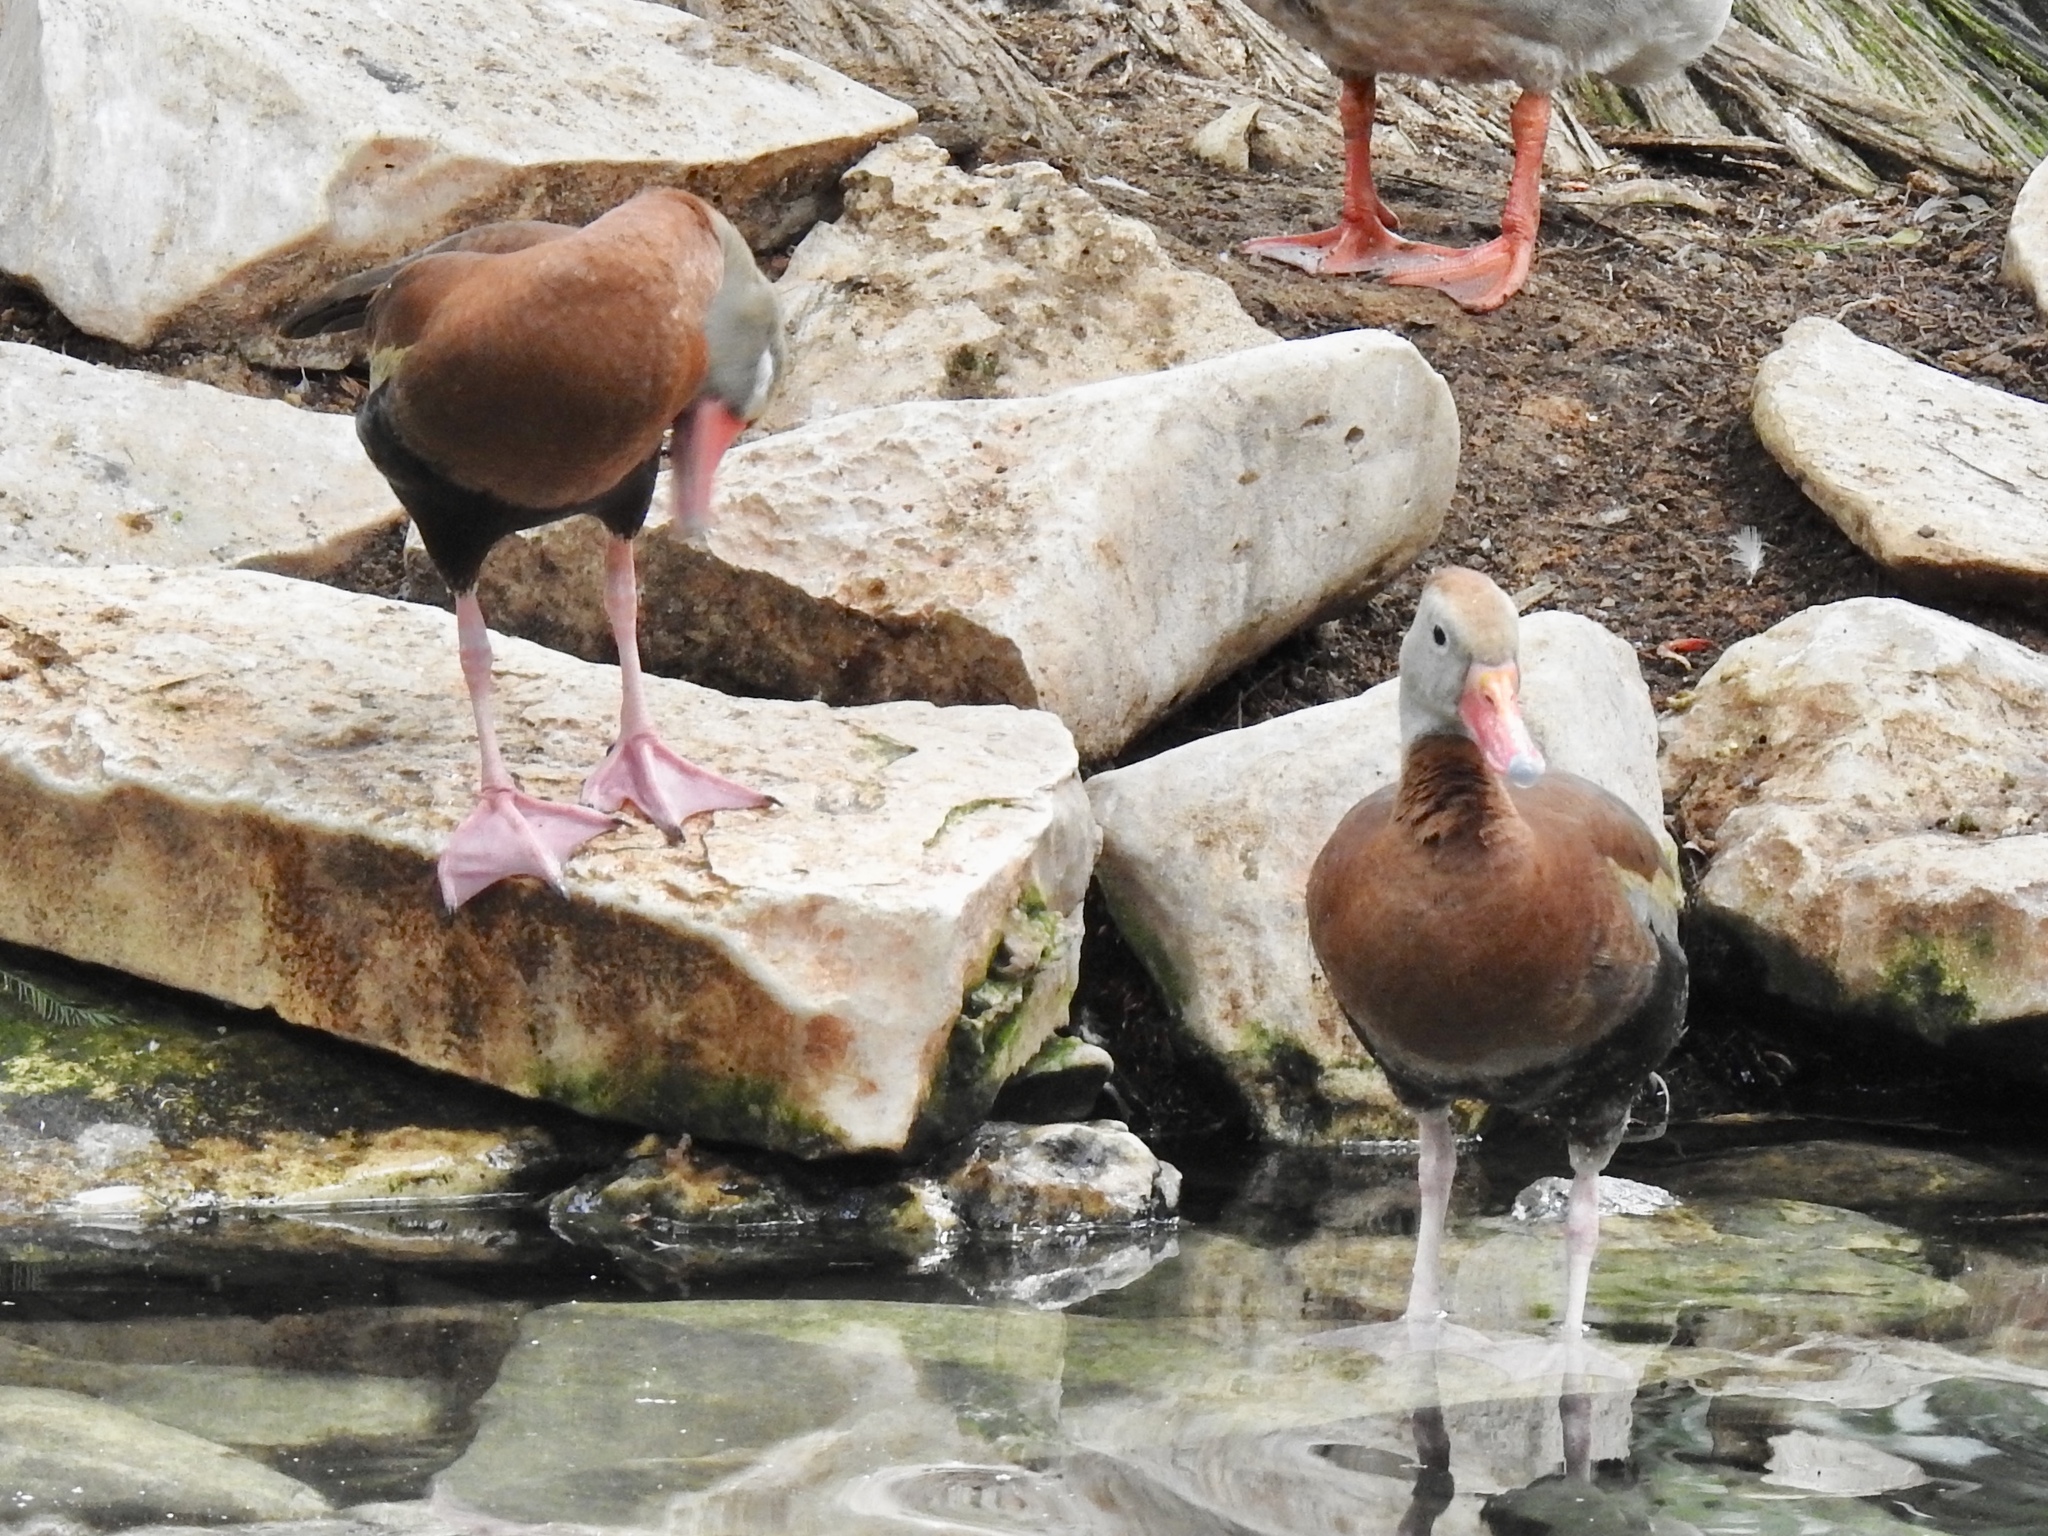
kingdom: Animalia
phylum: Chordata
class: Aves
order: Anseriformes
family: Anatidae
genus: Dendrocygna
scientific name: Dendrocygna autumnalis
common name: Black-bellied whistling duck
